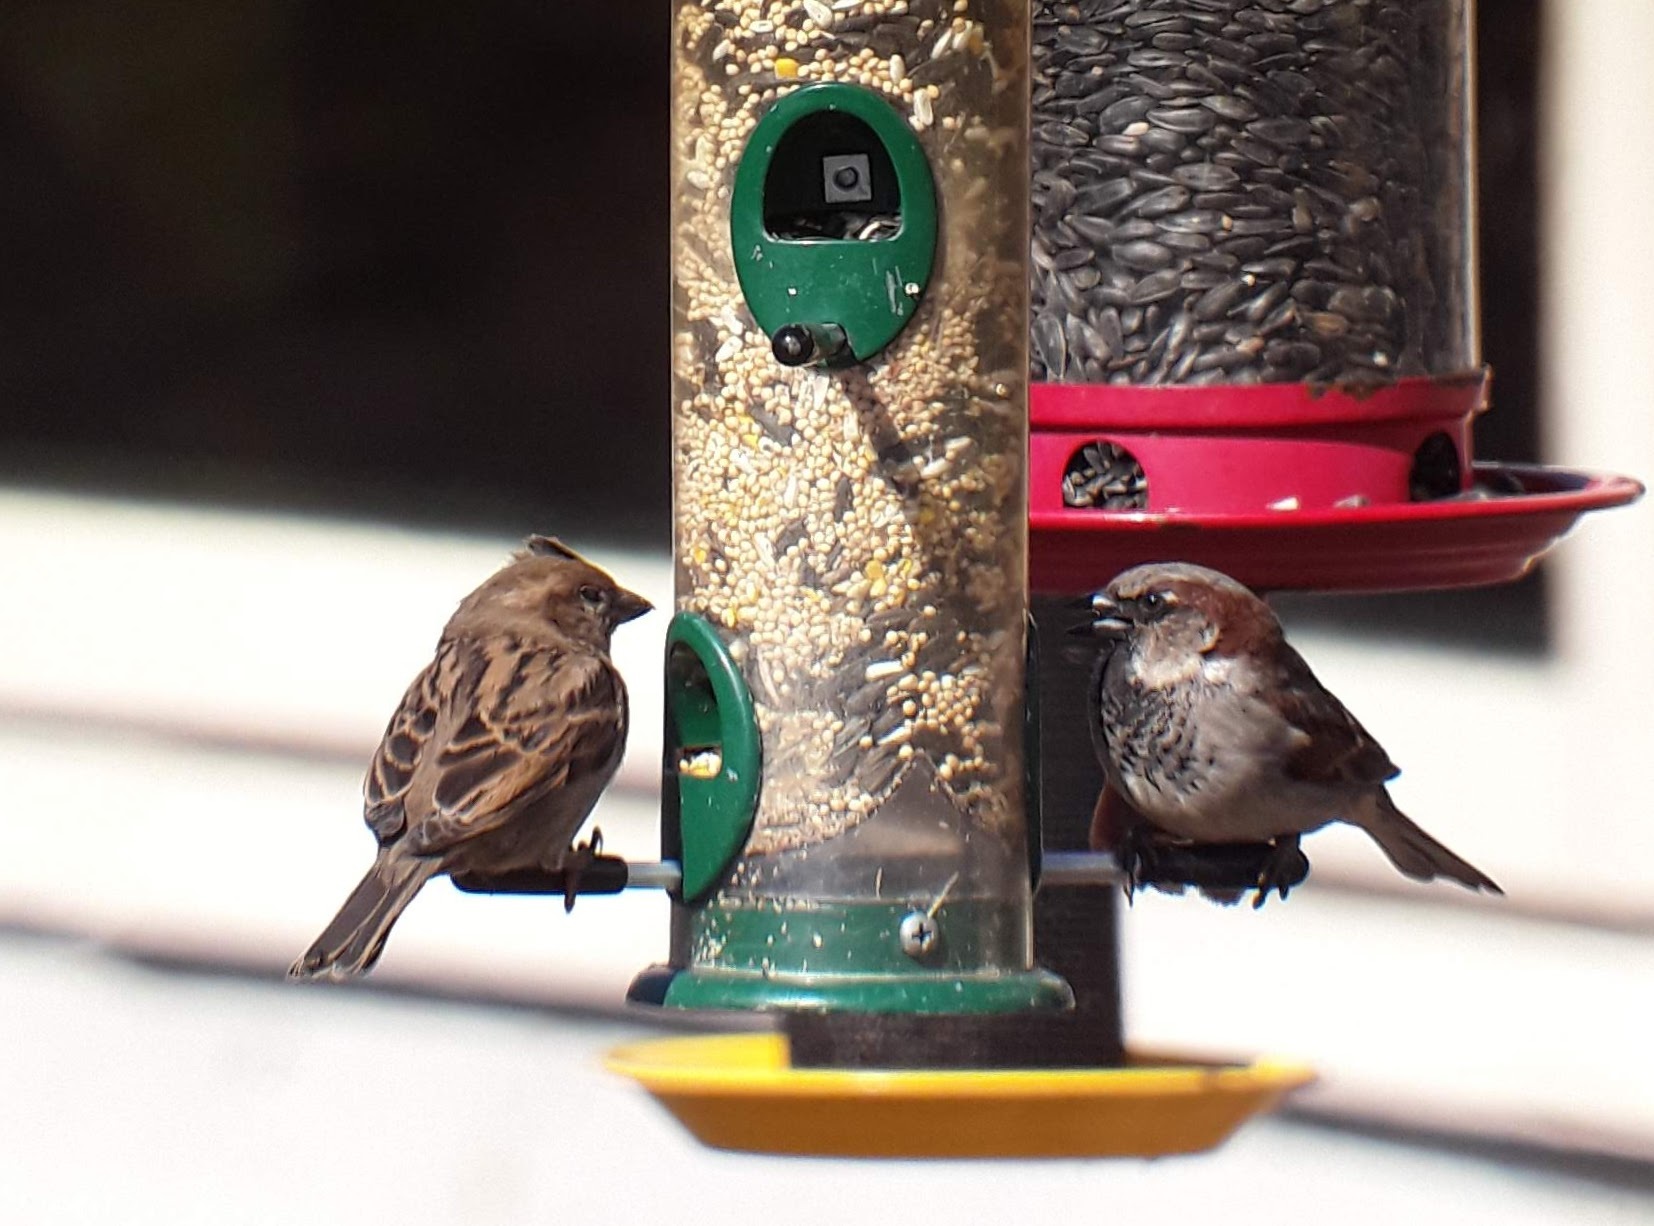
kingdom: Animalia
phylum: Chordata
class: Aves
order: Passeriformes
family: Passeridae
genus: Passer
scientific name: Passer domesticus
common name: House sparrow
